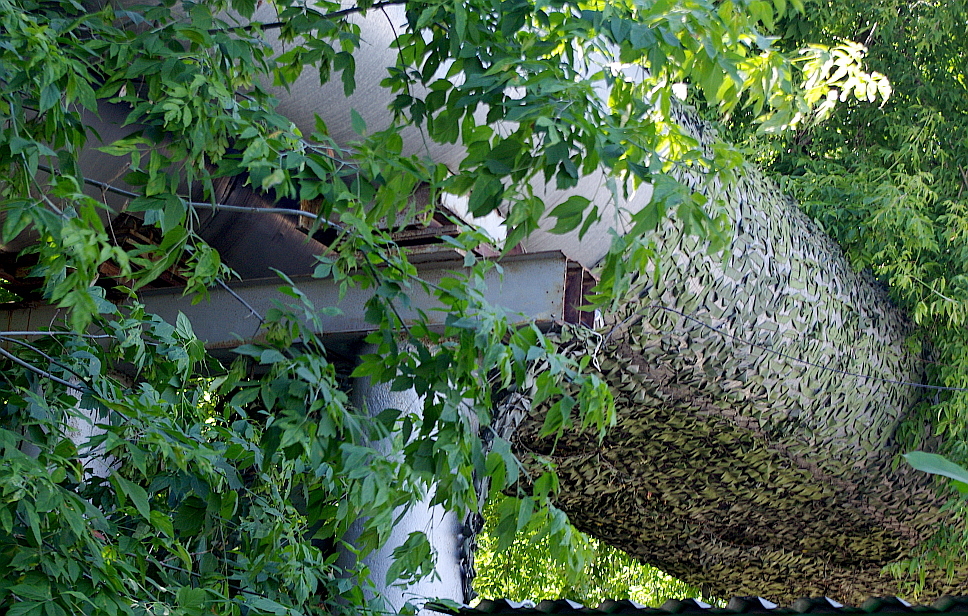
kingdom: Plantae
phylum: Tracheophyta
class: Magnoliopsida
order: Sapindales
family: Sapindaceae
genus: Acer
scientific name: Acer negundo
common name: Ashleaf maple
